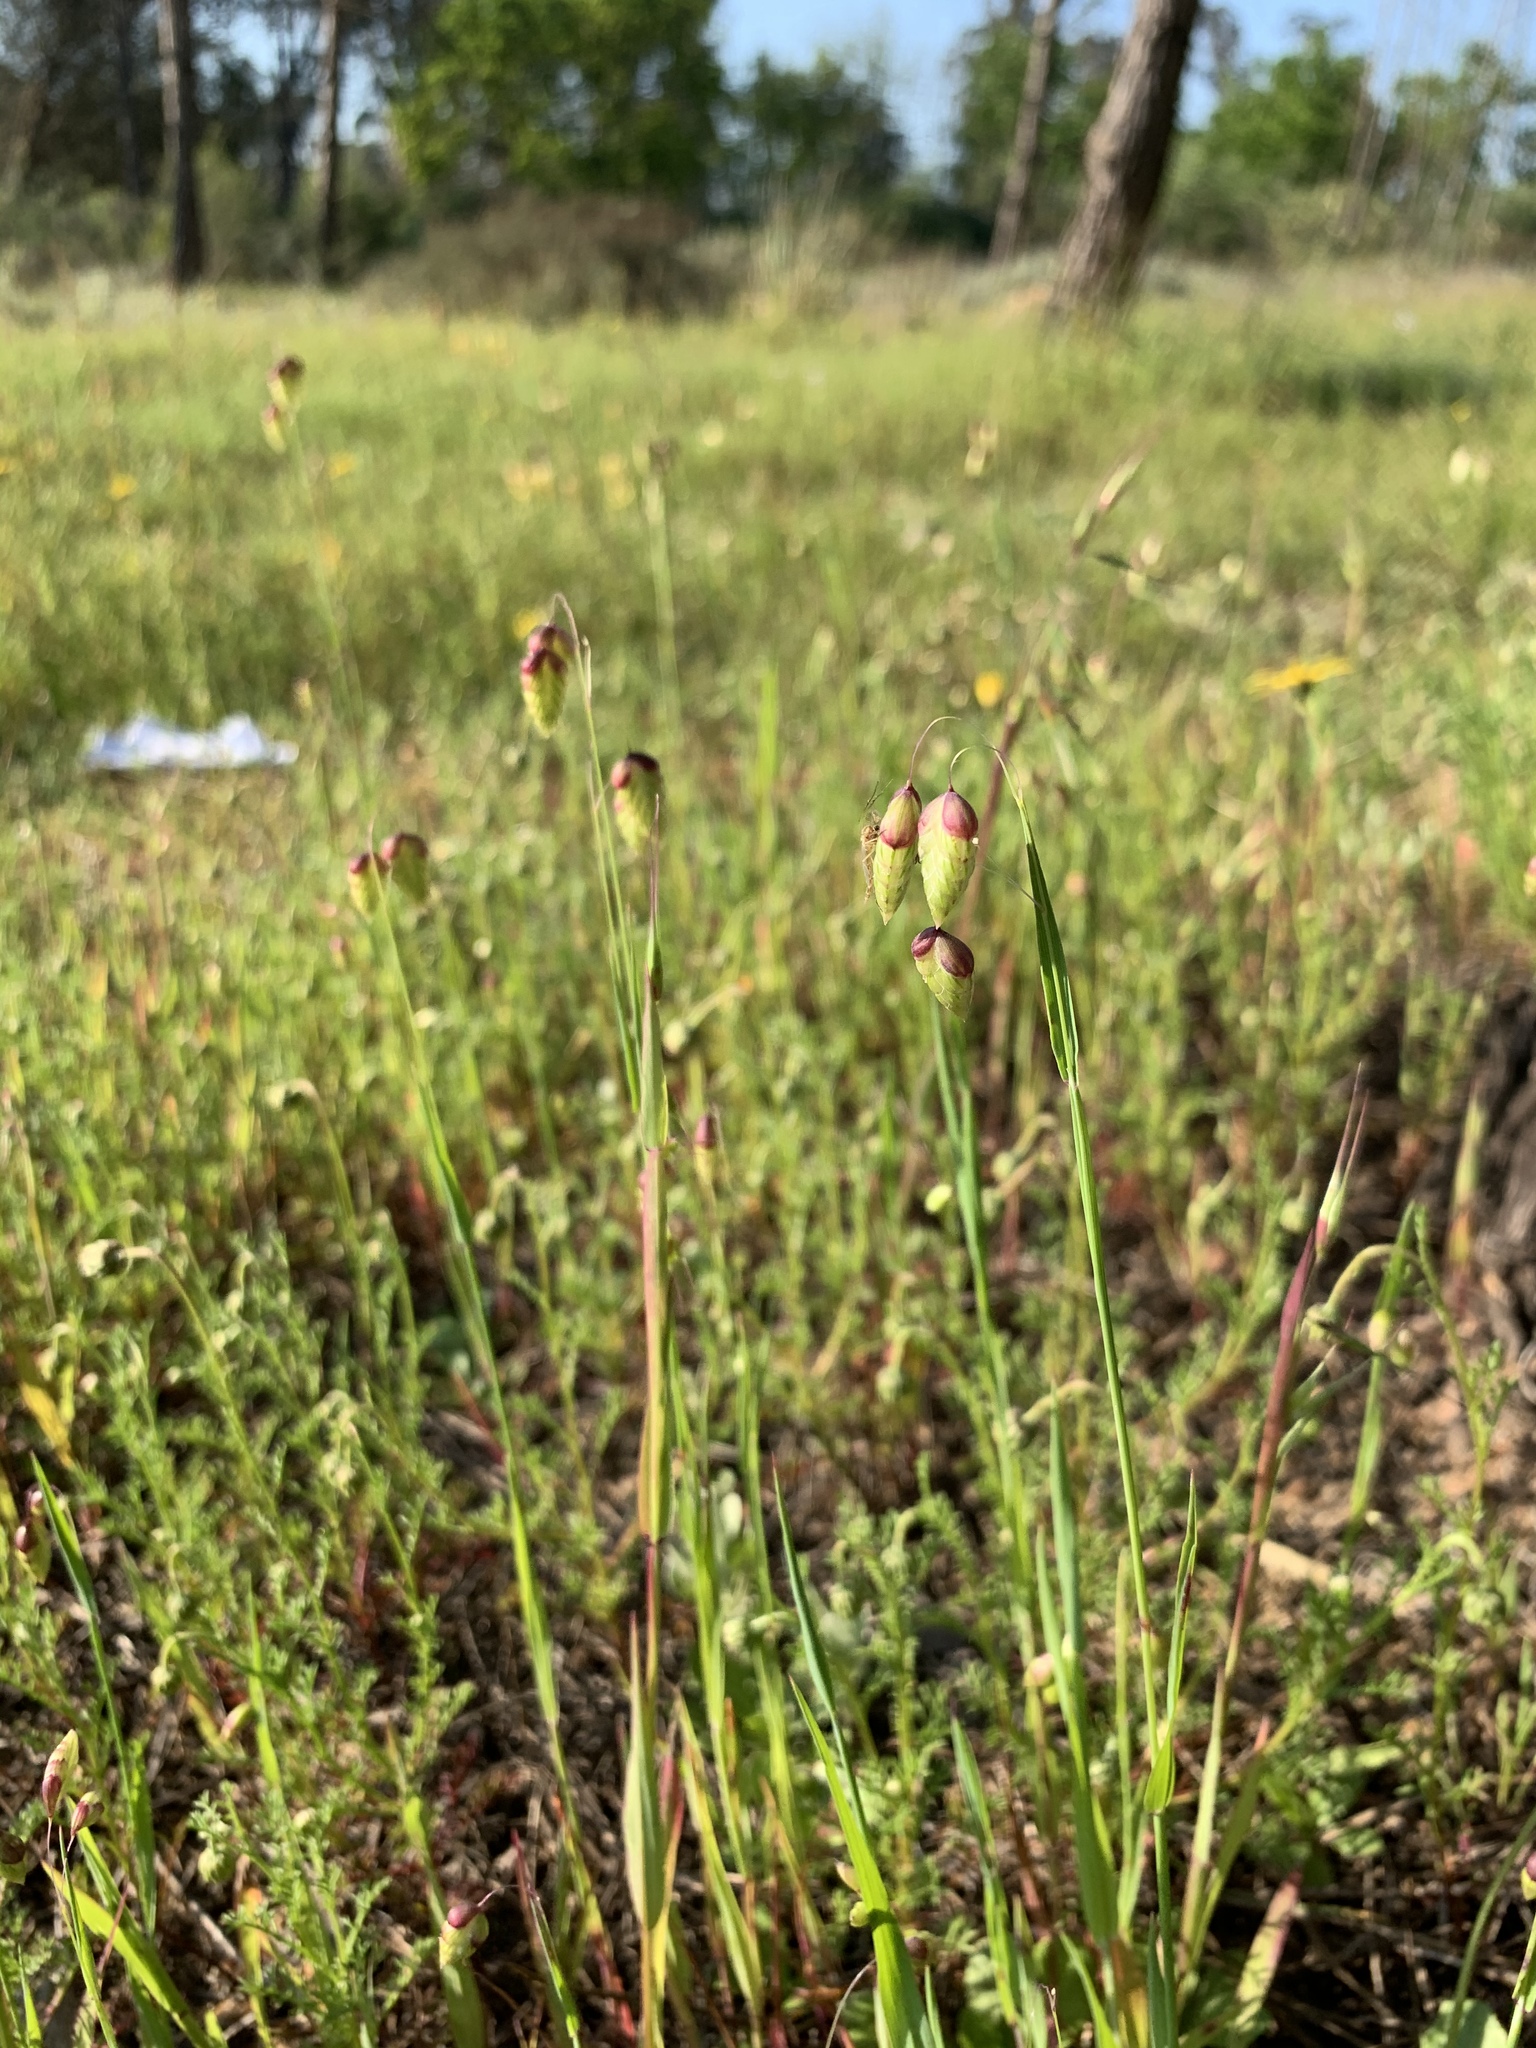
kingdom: Plantae
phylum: Tracheophyta
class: Liliopsida
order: Poales
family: Poaceae
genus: Briza
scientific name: Briza maxima
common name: Big quakinggrass
